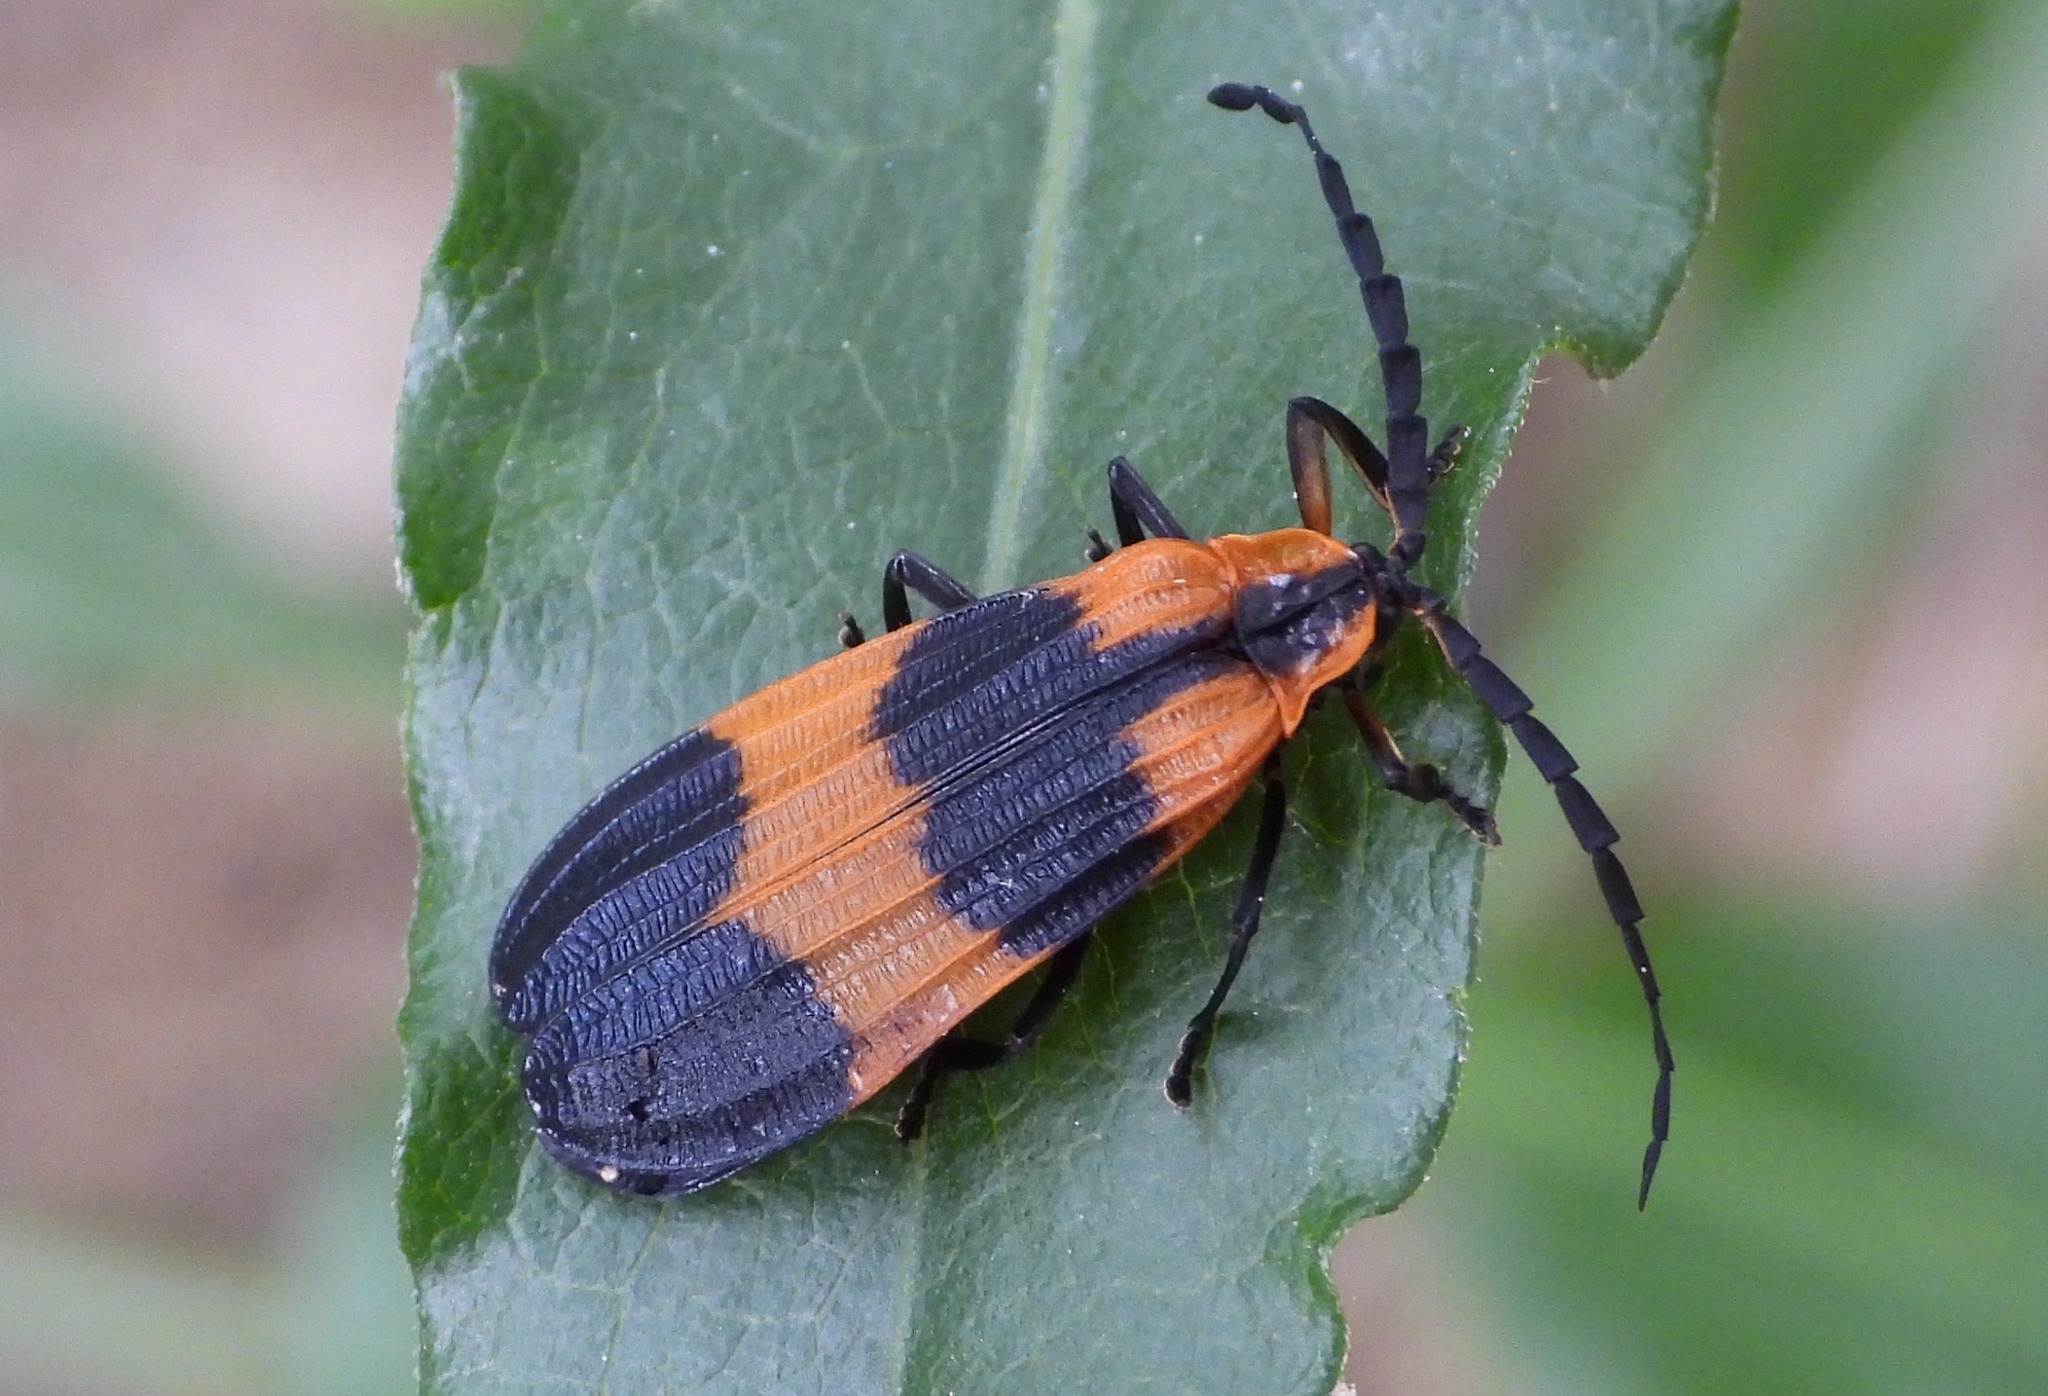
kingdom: Animalia
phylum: Arthropoda
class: Insecta
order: Coleoptera
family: Lycidae
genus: Calopteron
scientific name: Calopteron reticulatum
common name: Banded net-winged beetle
